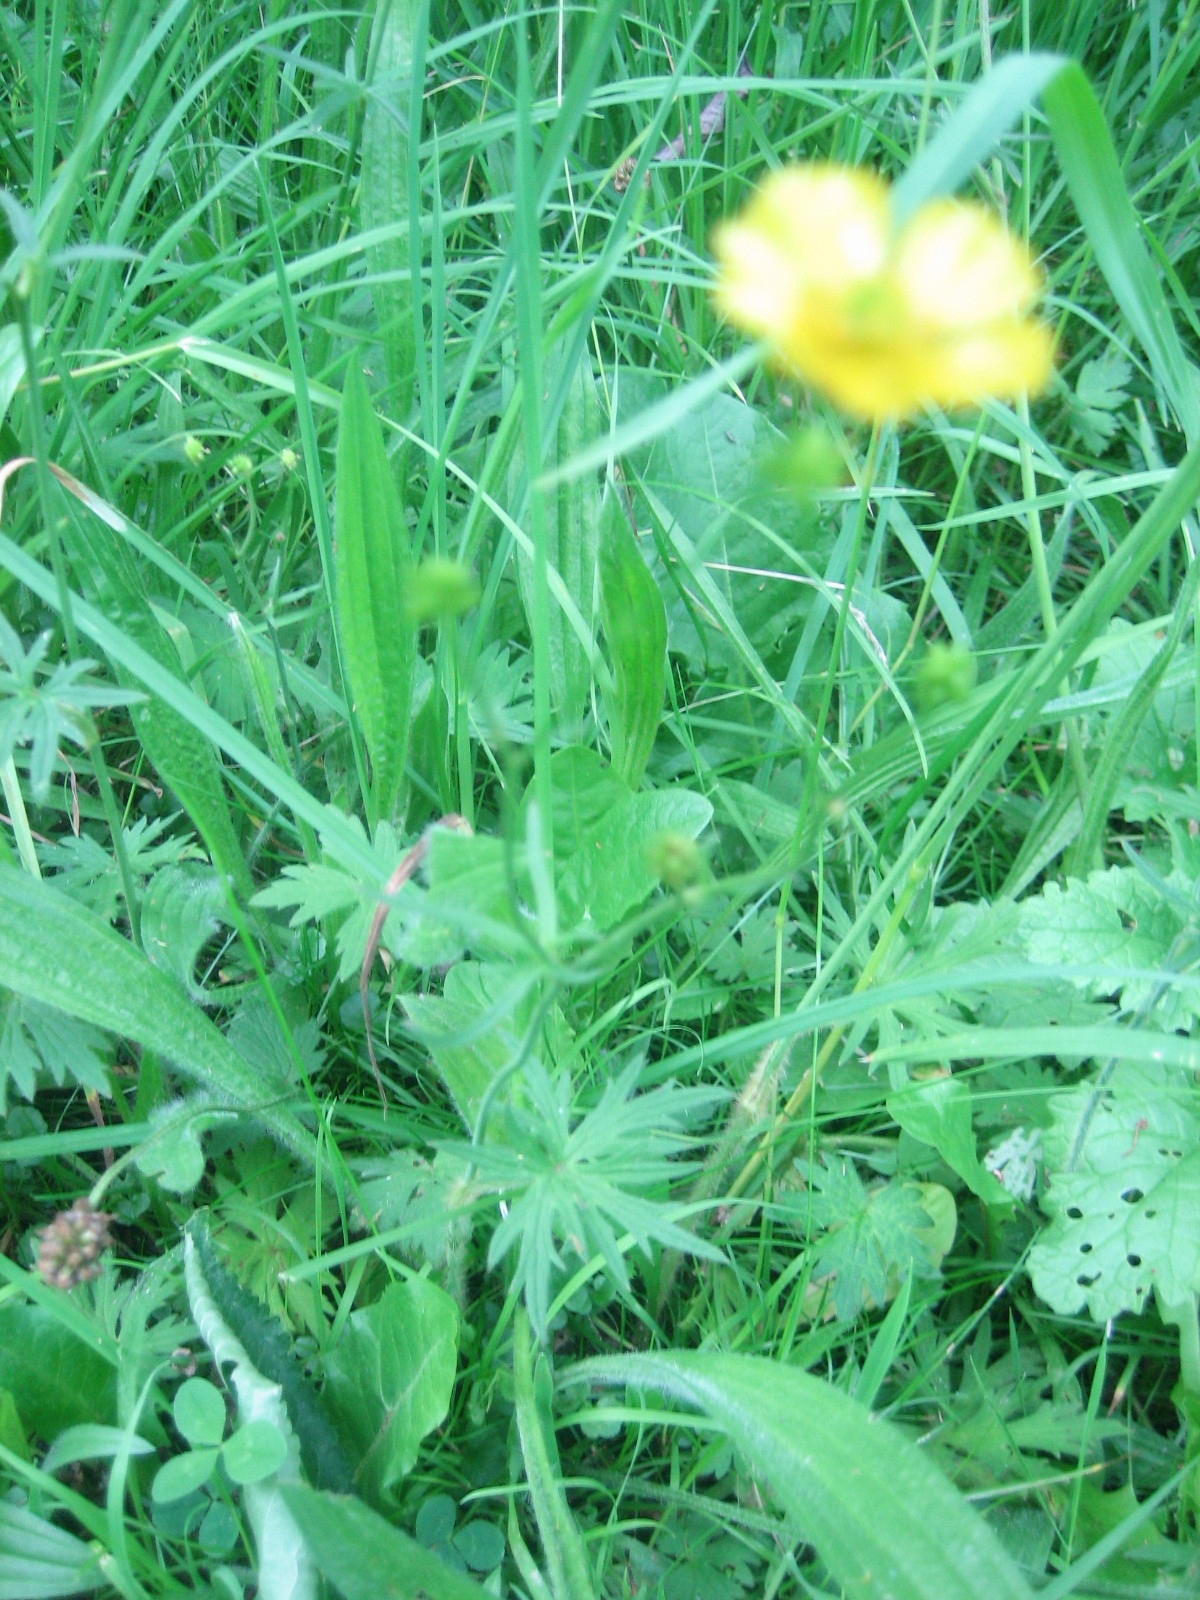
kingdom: Plantae
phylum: Tracheophyta
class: Magnoliopsida
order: Ranunculales
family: Ranunculaceae
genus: Ranunculus
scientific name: Ranunculus acris
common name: Meadow buttercup
